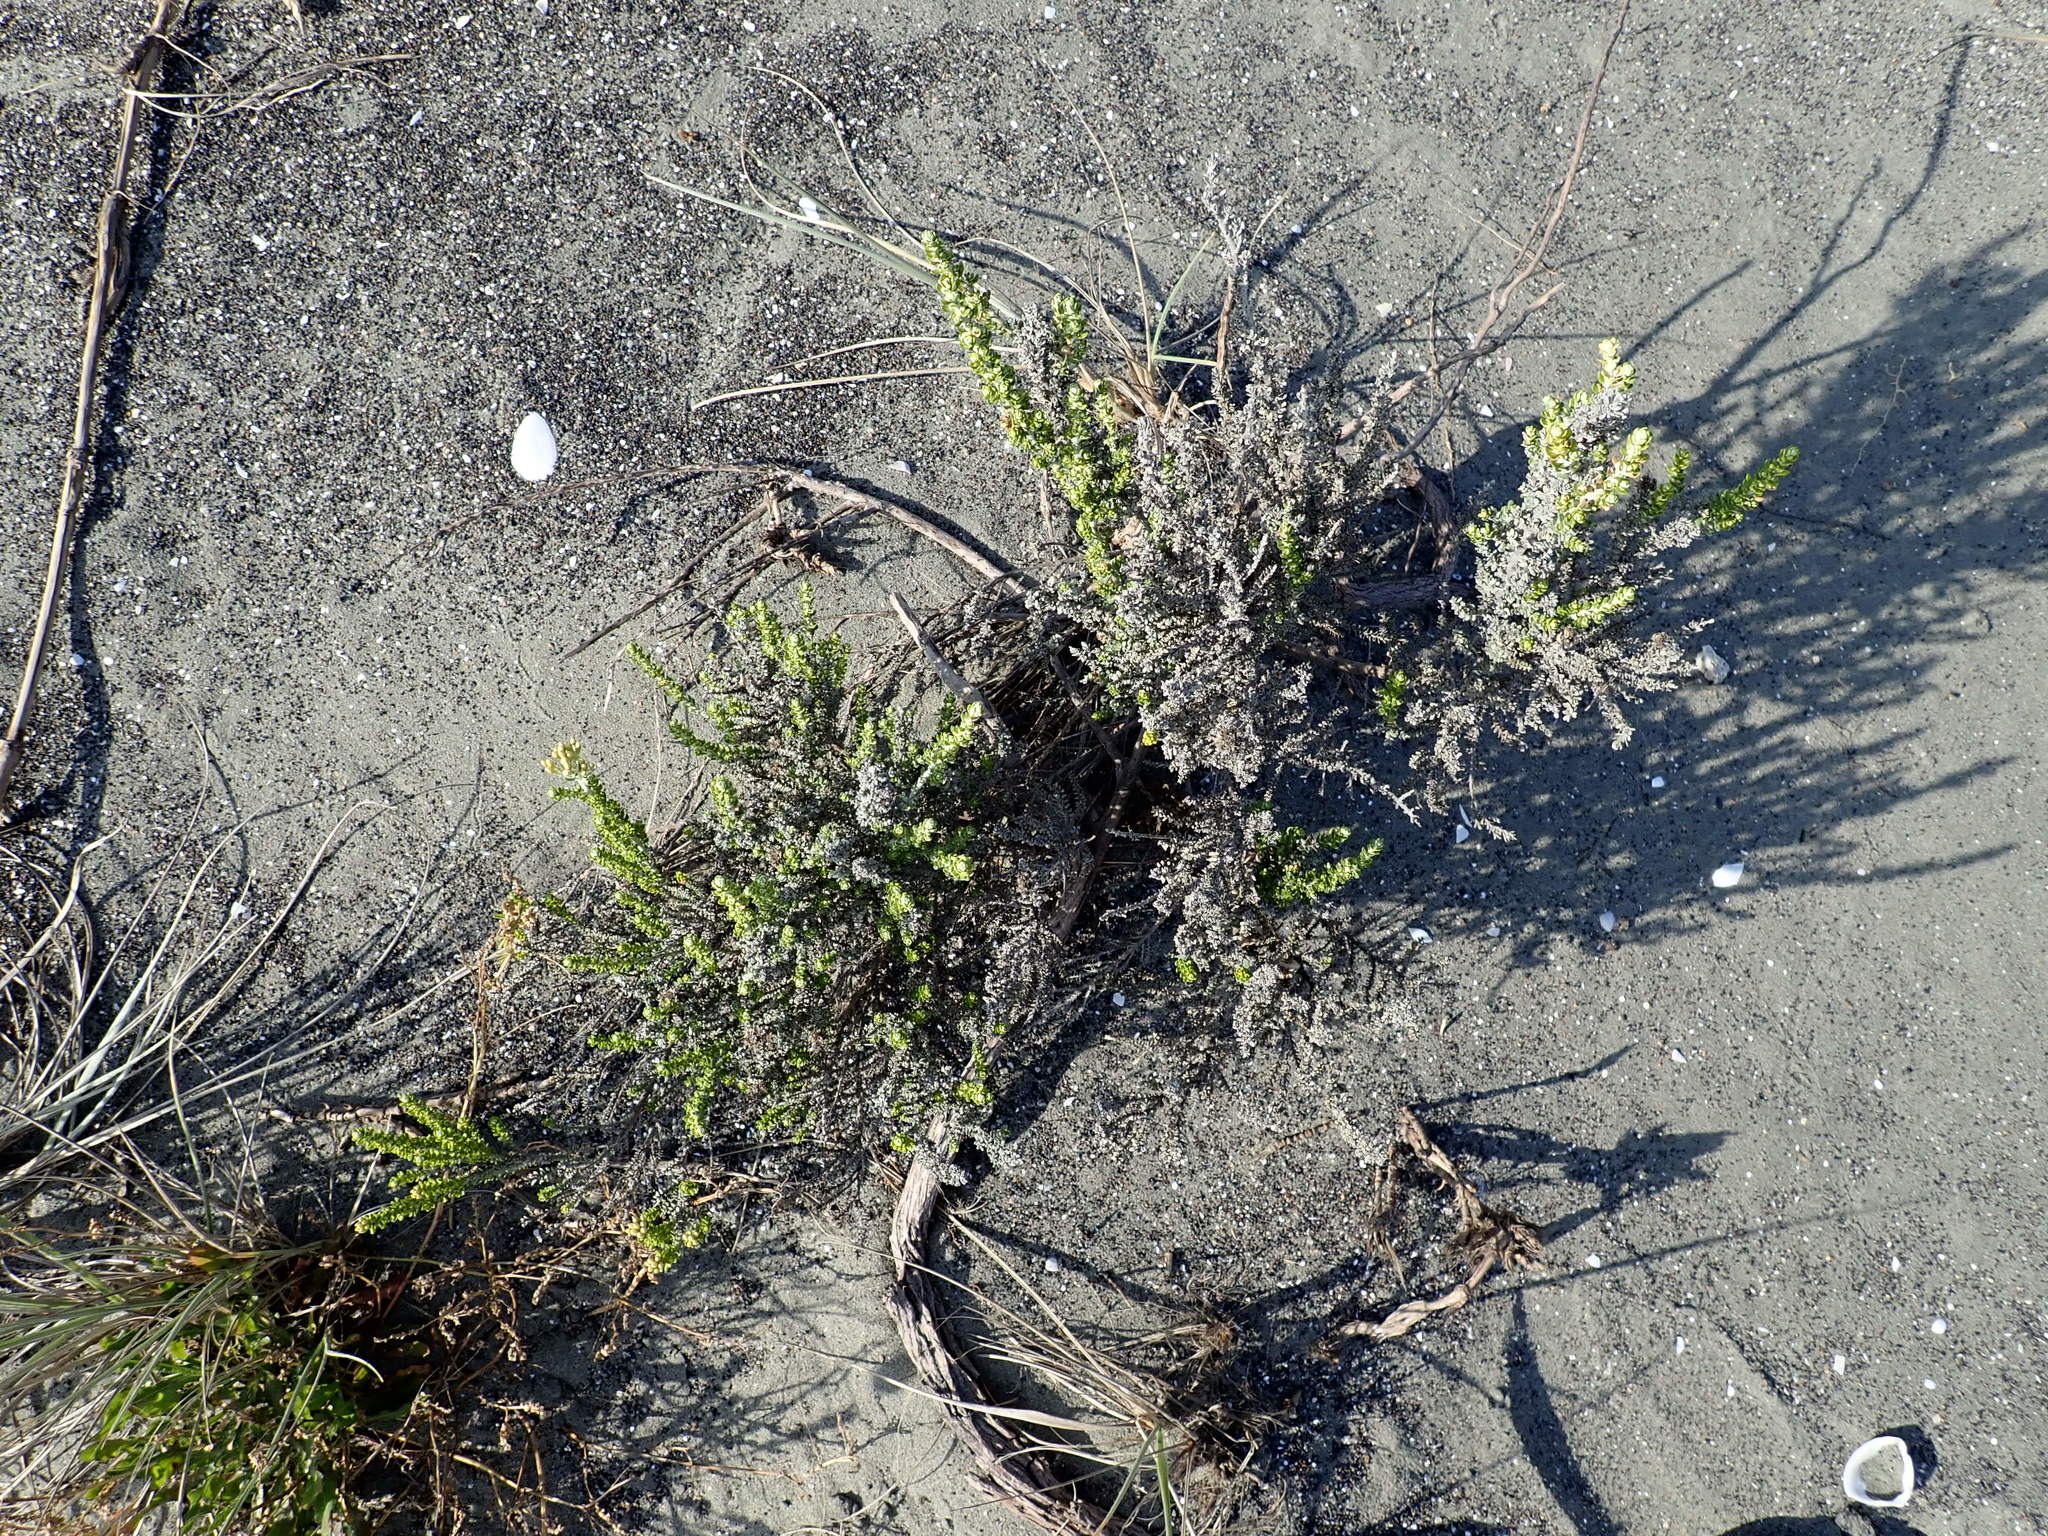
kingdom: Plantae
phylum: Tracheophyta
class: Magnoliopsida
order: Asterales
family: Asteraceae
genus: Ozothamnus
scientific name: Ozothamnus leptophyllus
